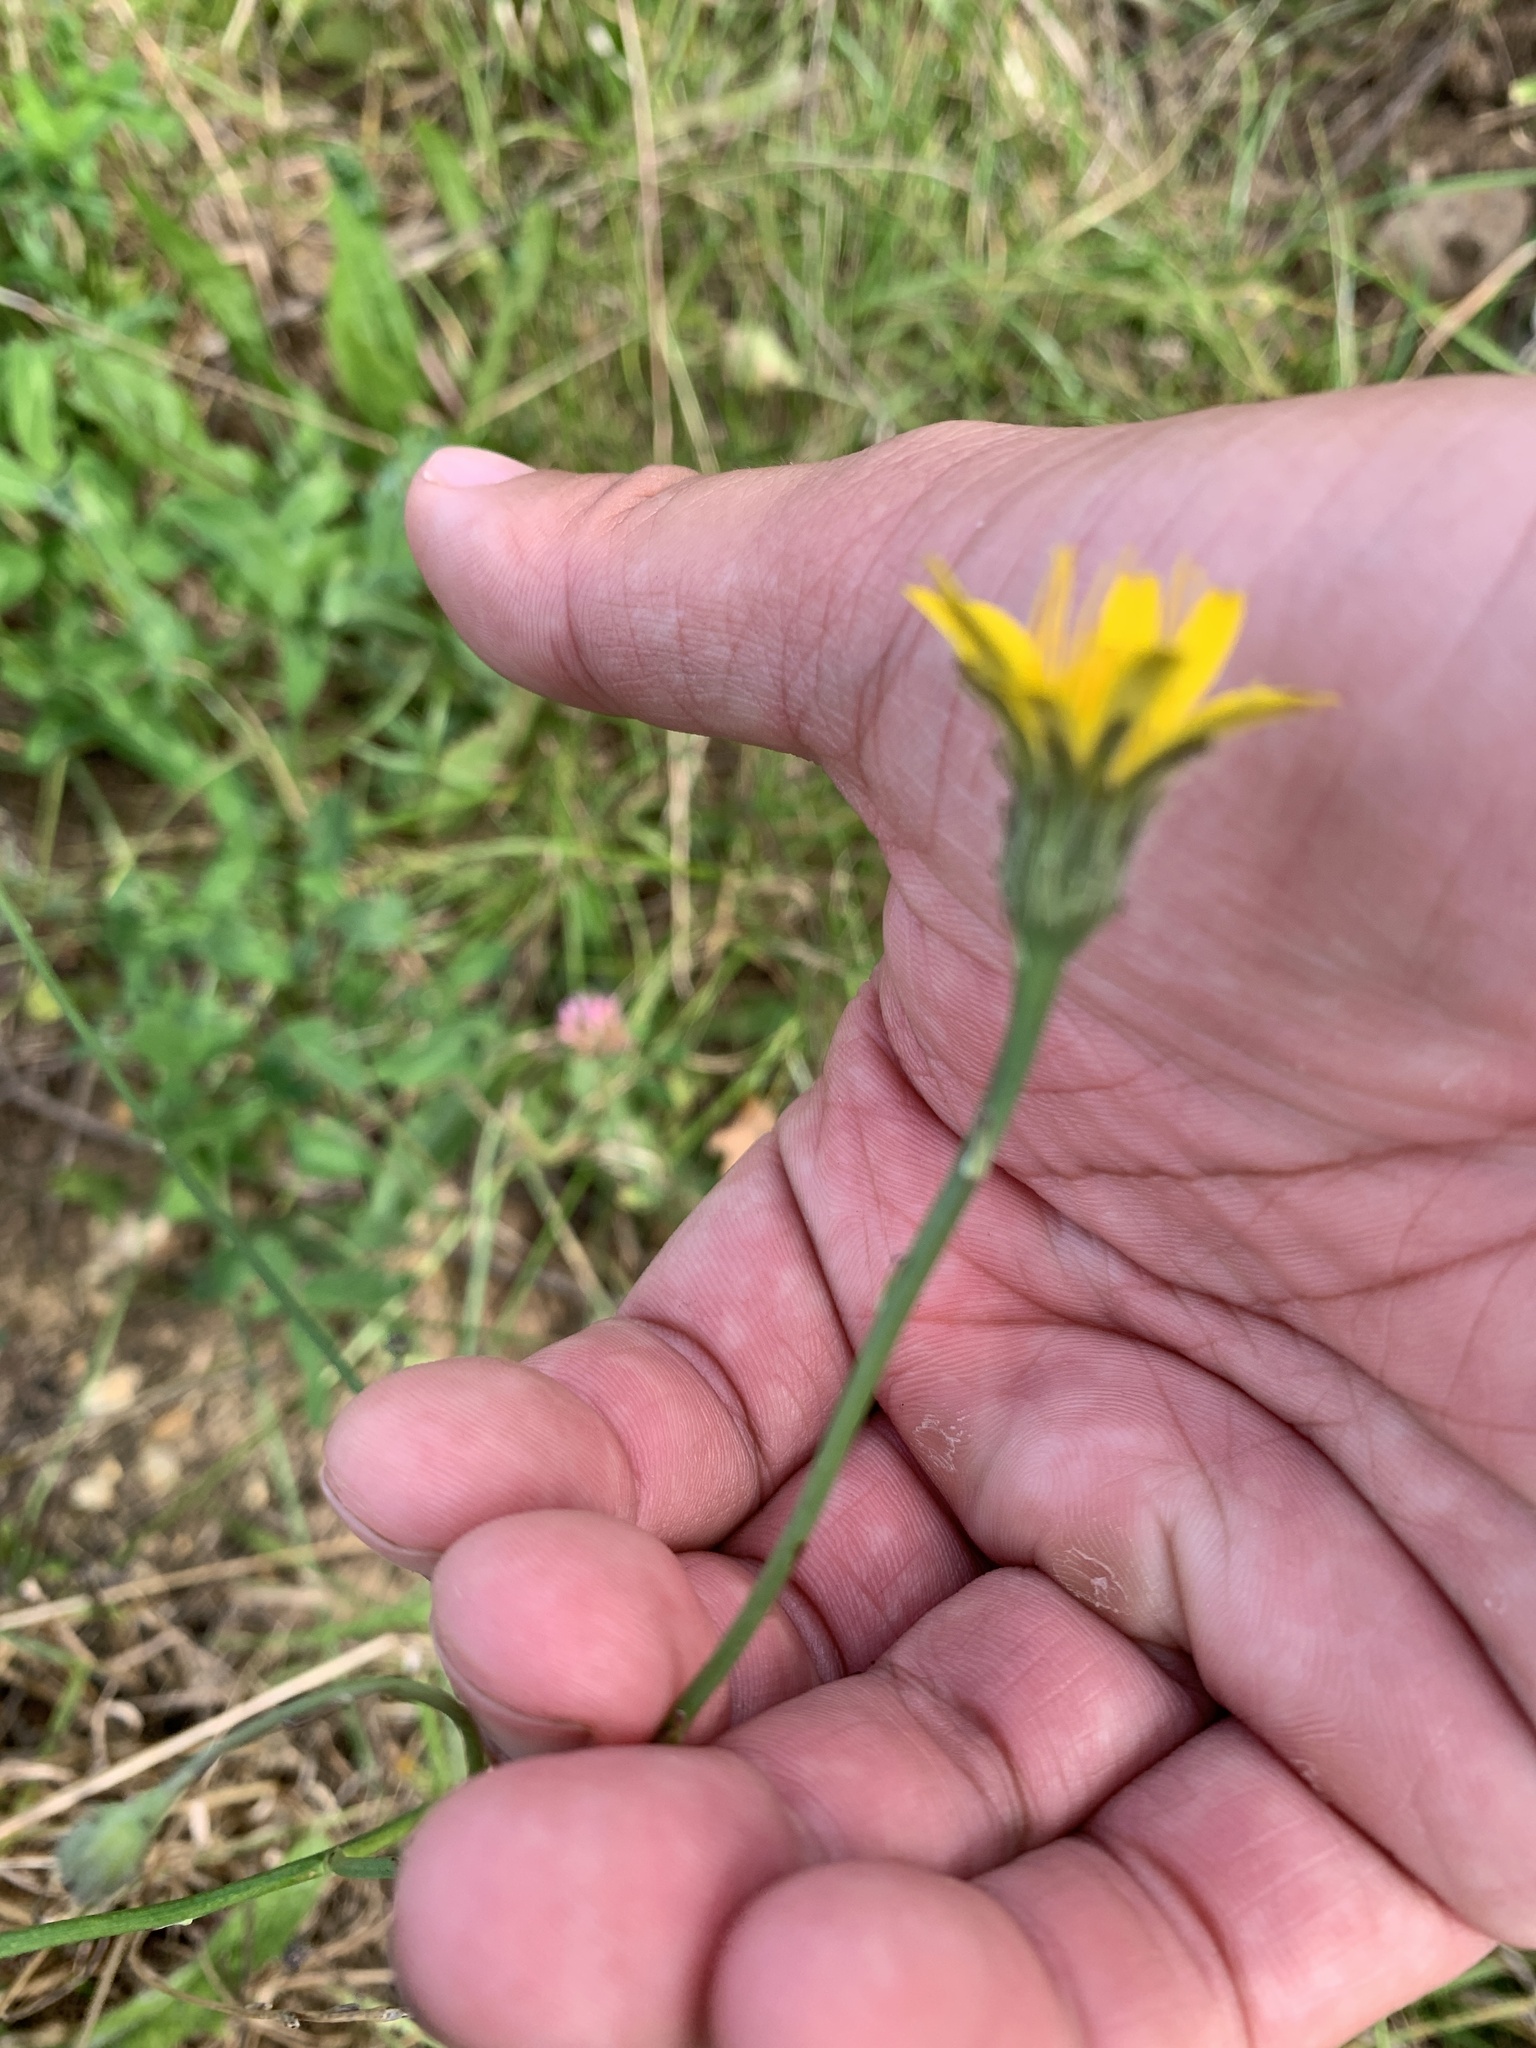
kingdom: Plantae
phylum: Tracheophyta
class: Magnoliopsida
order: Asterales
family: Asteraceae
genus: Hypochaeris
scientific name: Hypochaeris radicata
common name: Flatweed
